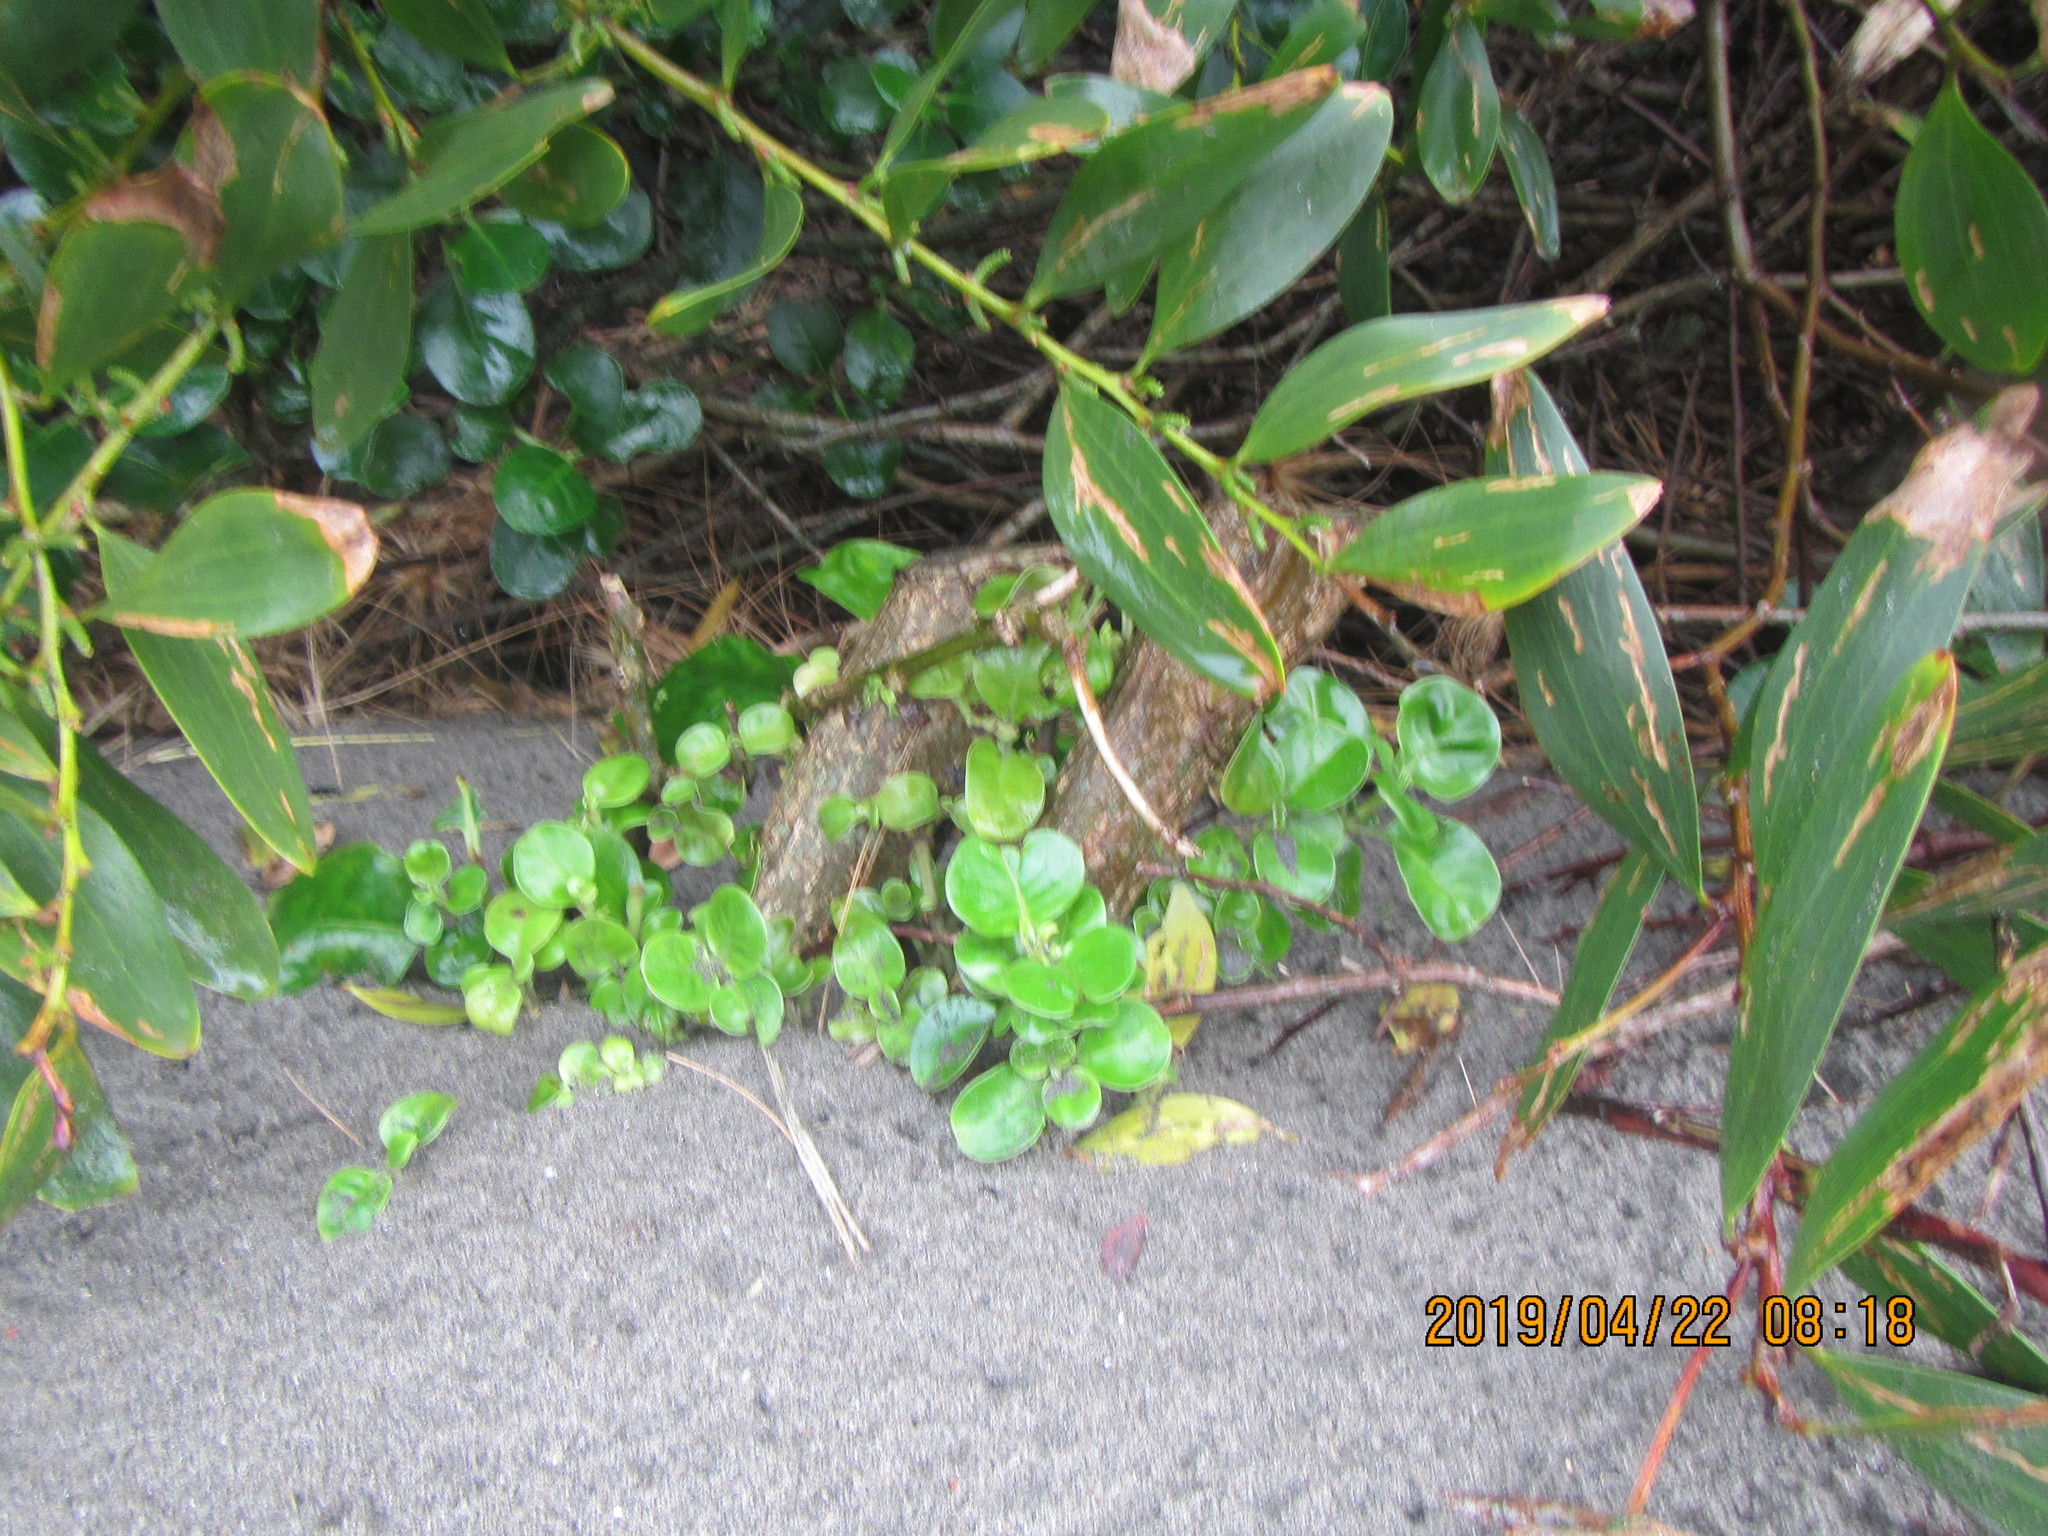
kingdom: Plantae
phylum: Tracheophyta
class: Magnoliopsida
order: Gentianales
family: Rubiaceae
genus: Coprosma
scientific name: Coprosma repens
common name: Tree bedstraw
